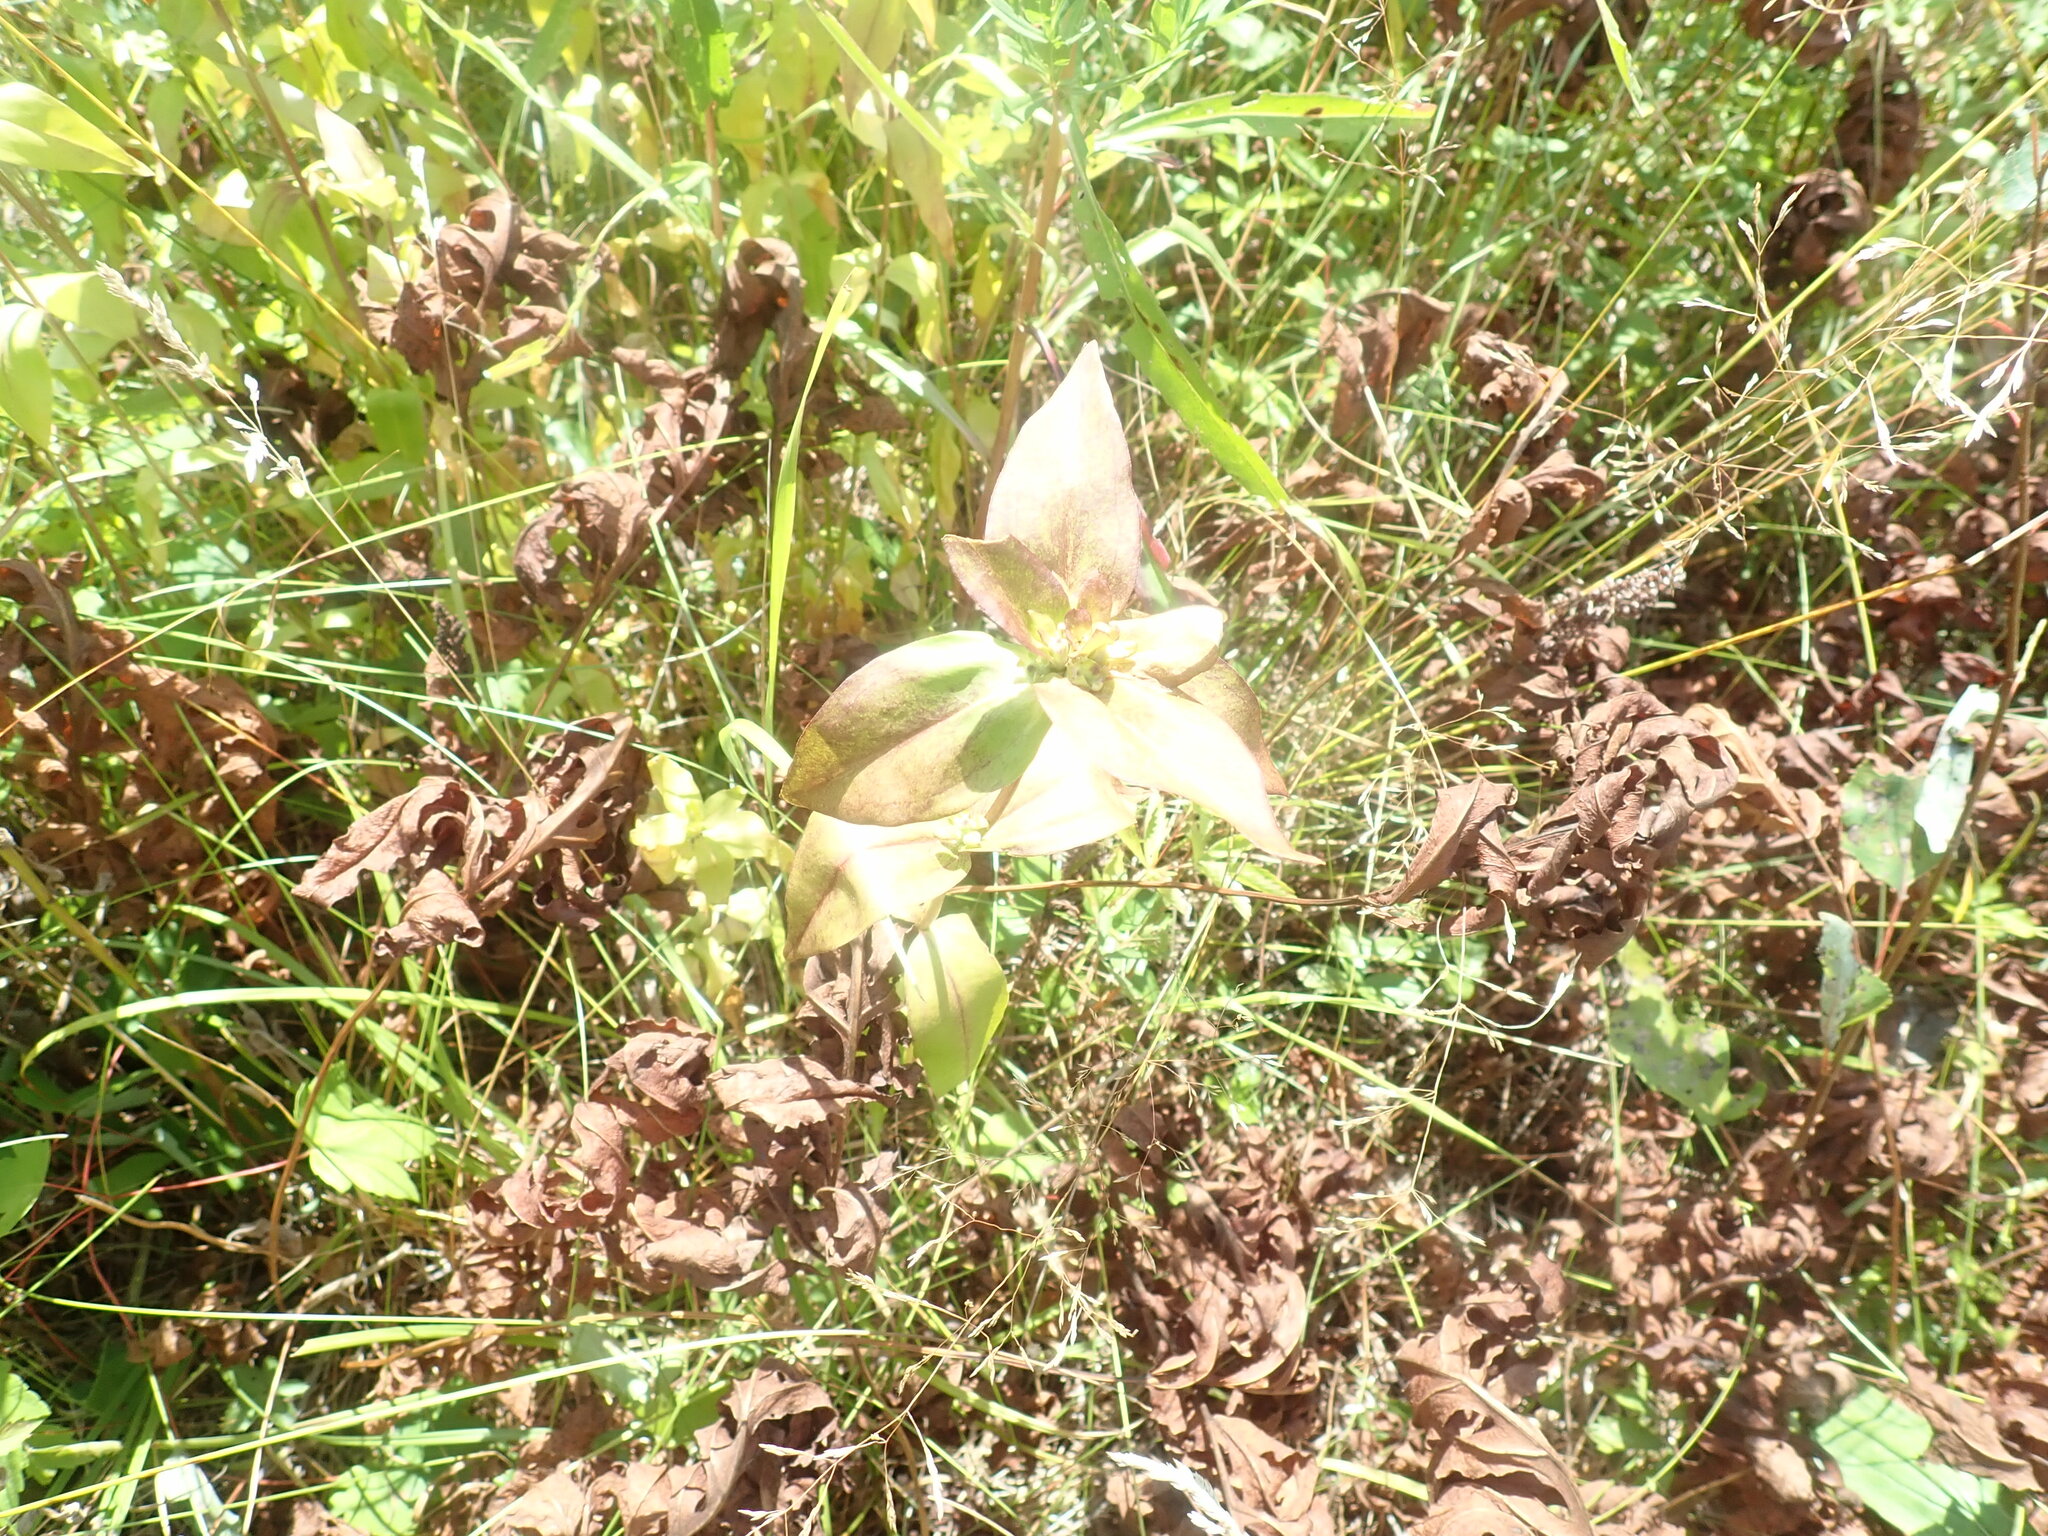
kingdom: Plantae
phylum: Tracheophyta
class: Magnoliopsida
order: Gentianales
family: Gentianaceae
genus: Gentiana
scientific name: Gentiana clausa
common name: Blind gentian
